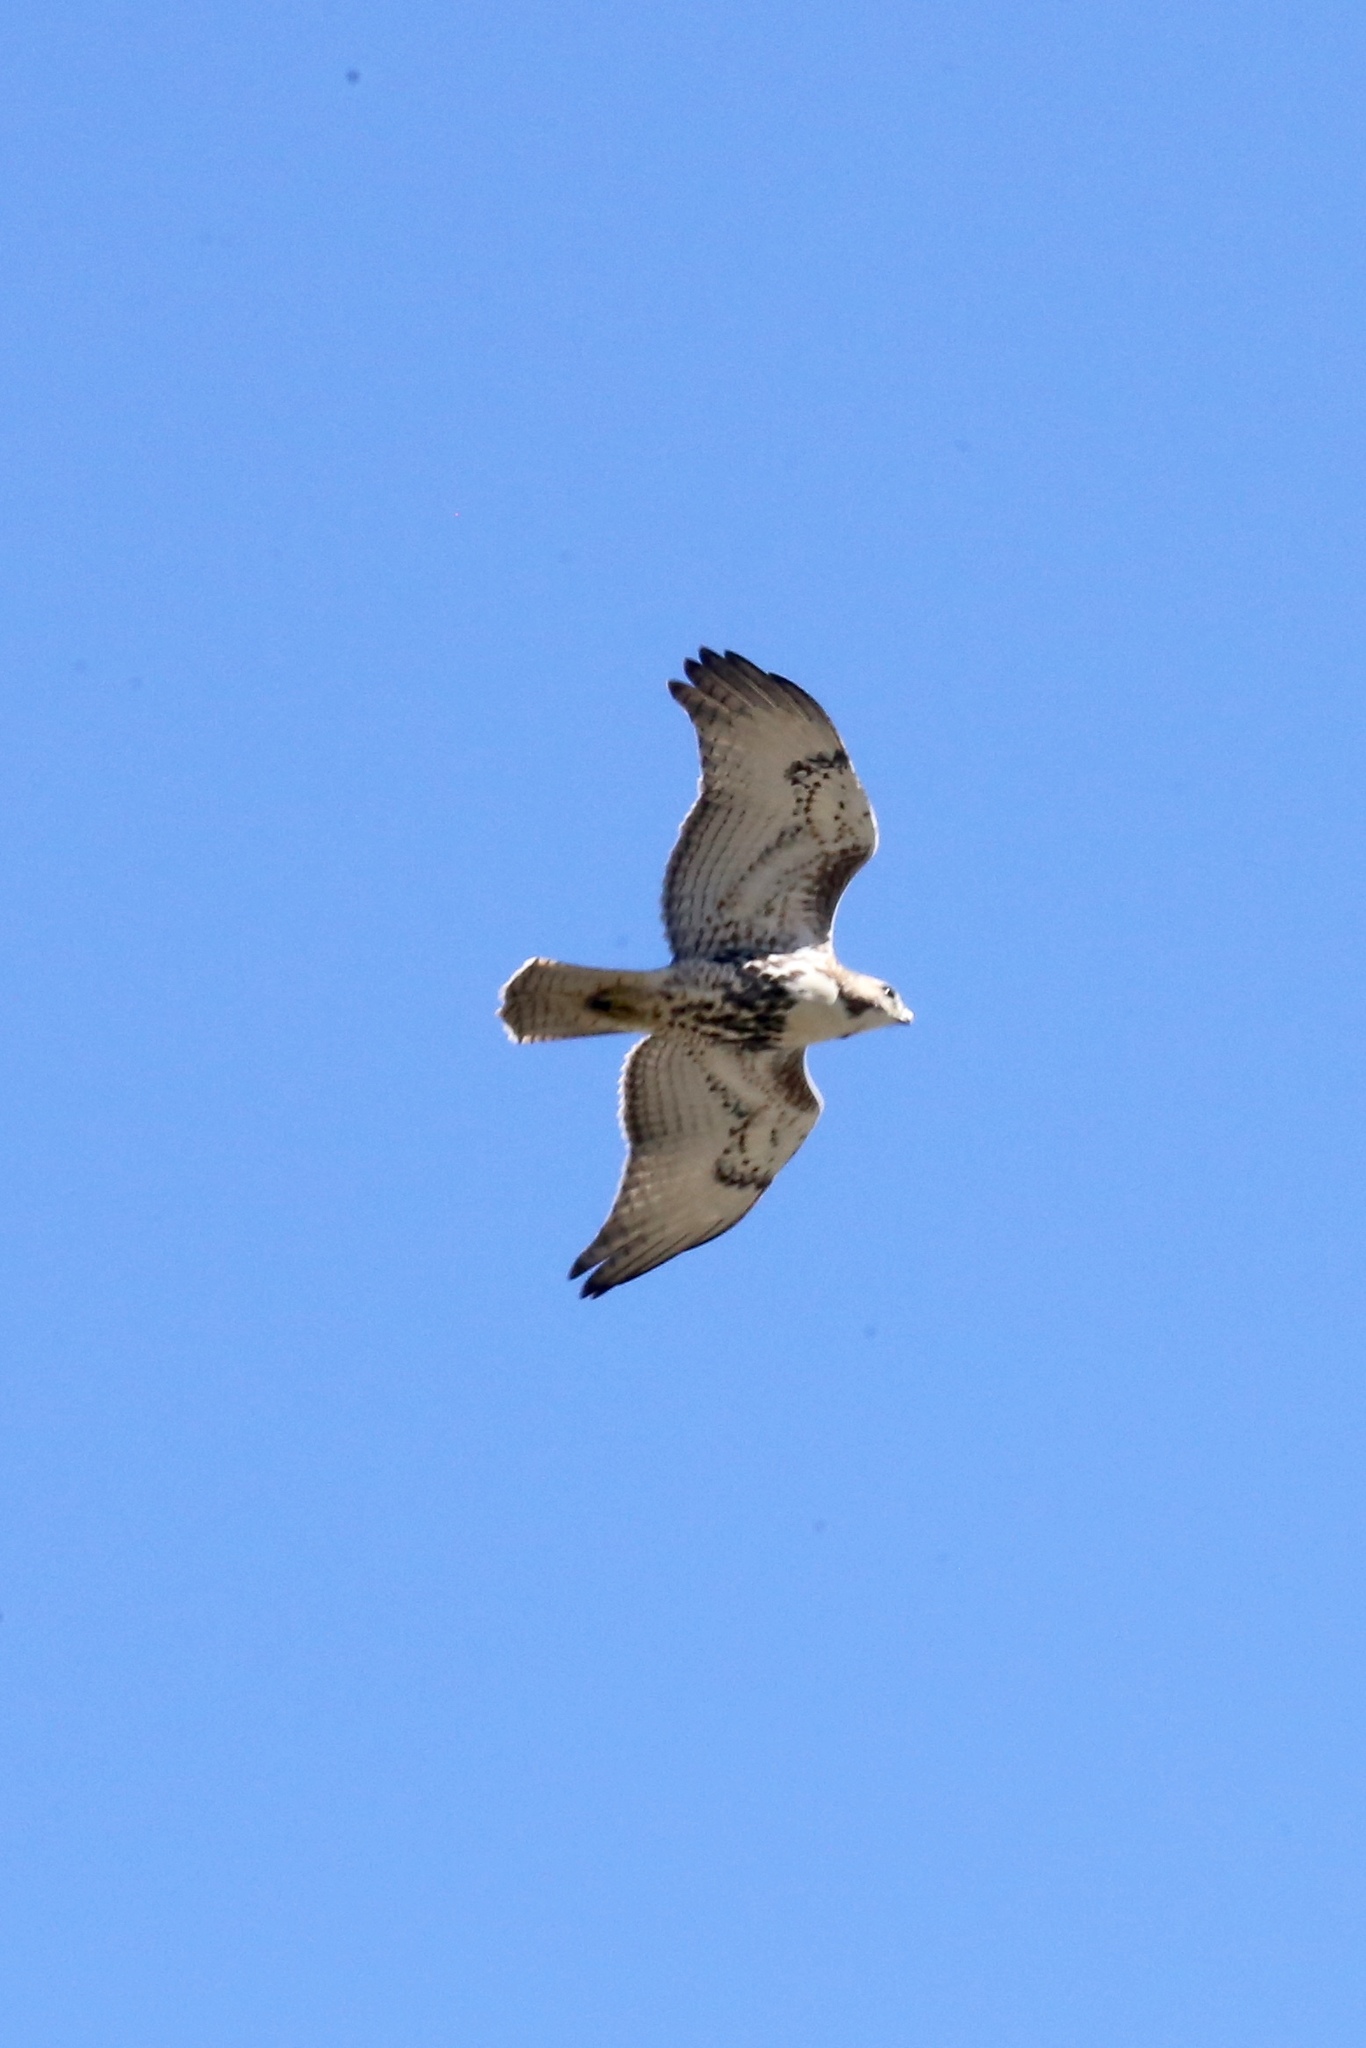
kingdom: Animalia
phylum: Chordata
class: Aves
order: Accipitriformes
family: Accipitridae
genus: Buteo
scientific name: Buteo jamaicensis
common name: Red-tailed hawk
